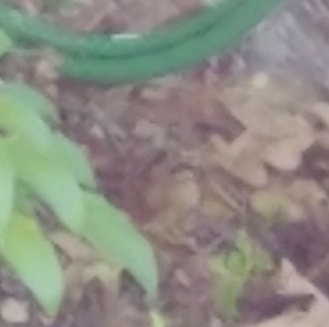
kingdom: Animalia
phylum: Chordata
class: Mammalia
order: Rodentia
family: Sciuridae
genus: Tamias
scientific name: Tamias striatus
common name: Eastern chipmunk
